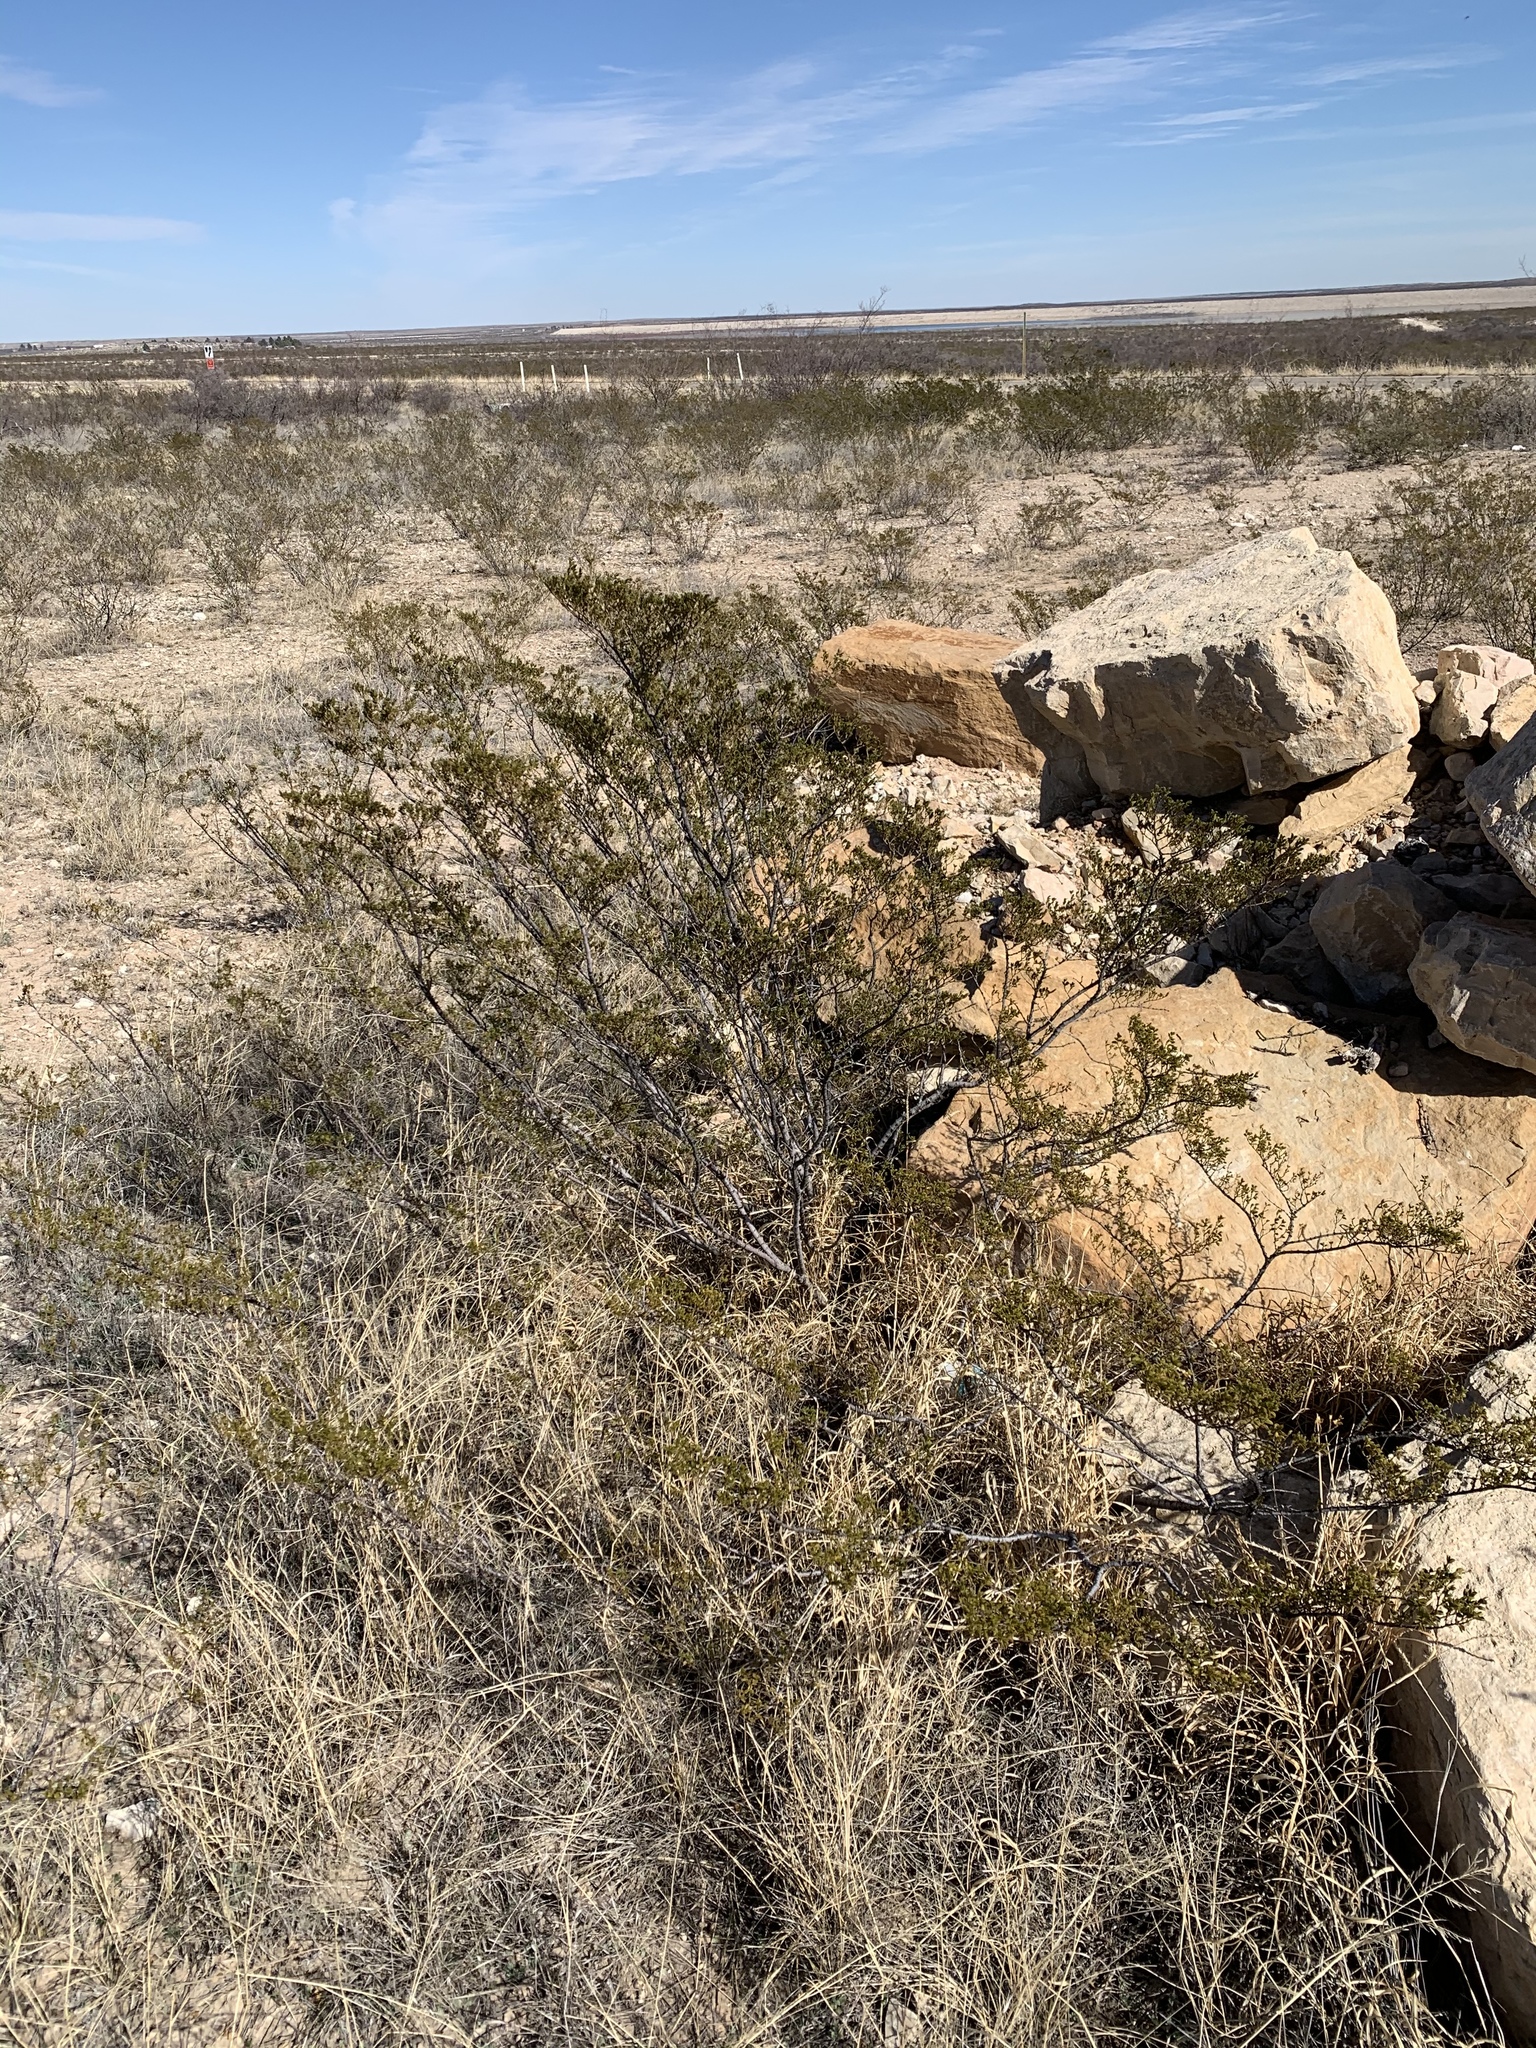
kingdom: Plantae
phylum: Tracheophyta
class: Magnoliopsida
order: Zygophyllales
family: Zygophyllaceae
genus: Larrea
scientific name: Larrea tridentata
